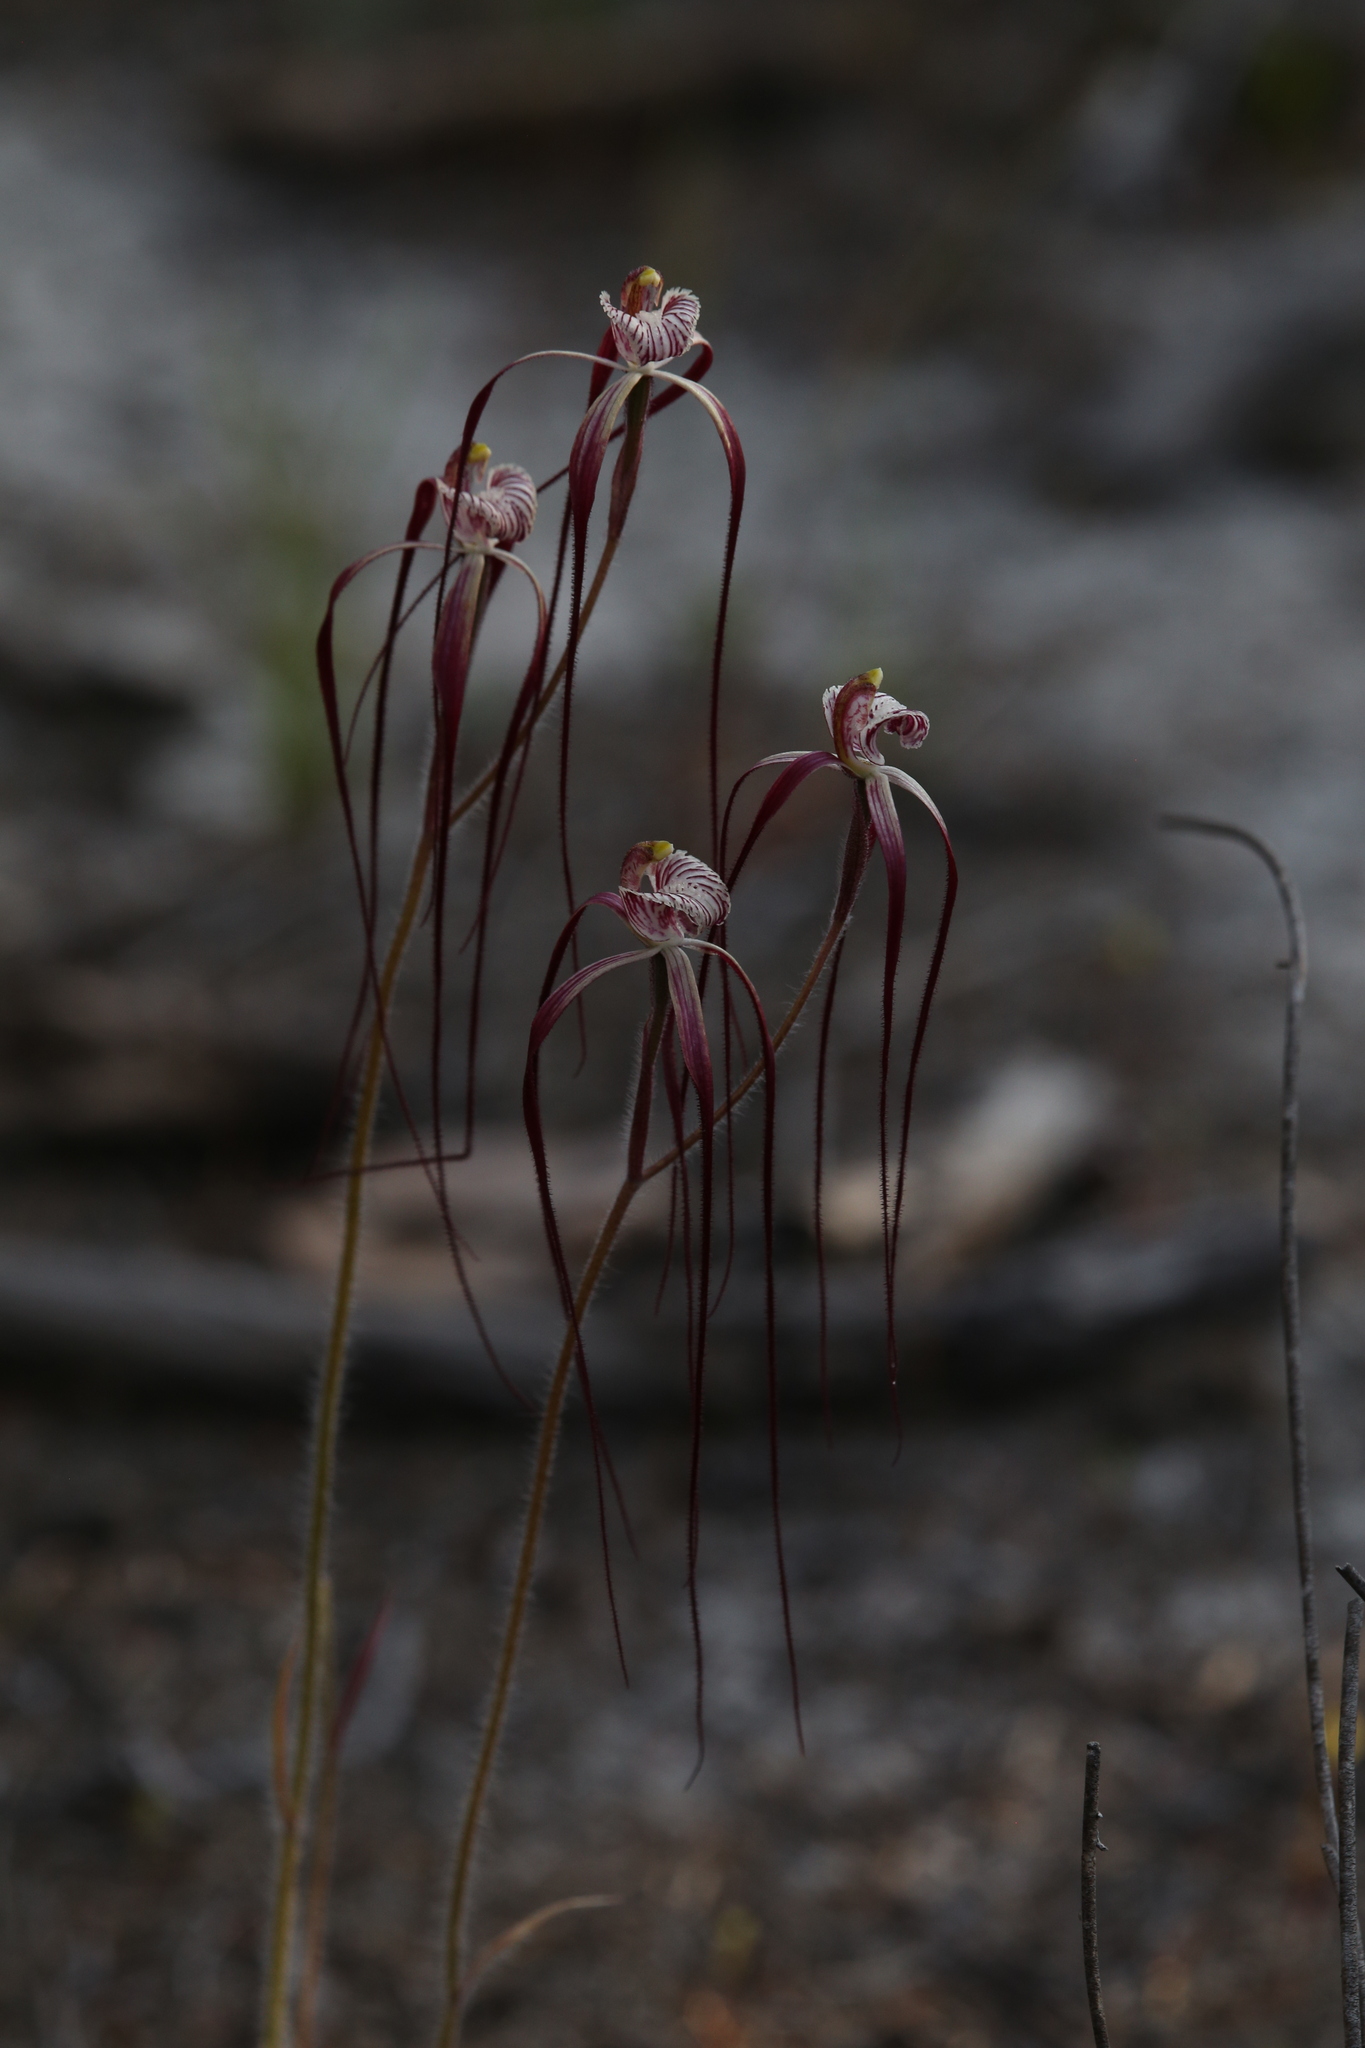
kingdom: Plantae
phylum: Tracheophyta
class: Liliopsida
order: Asparagales
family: Orchidaceae
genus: Caladenia
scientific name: Caladenia chapmanii
